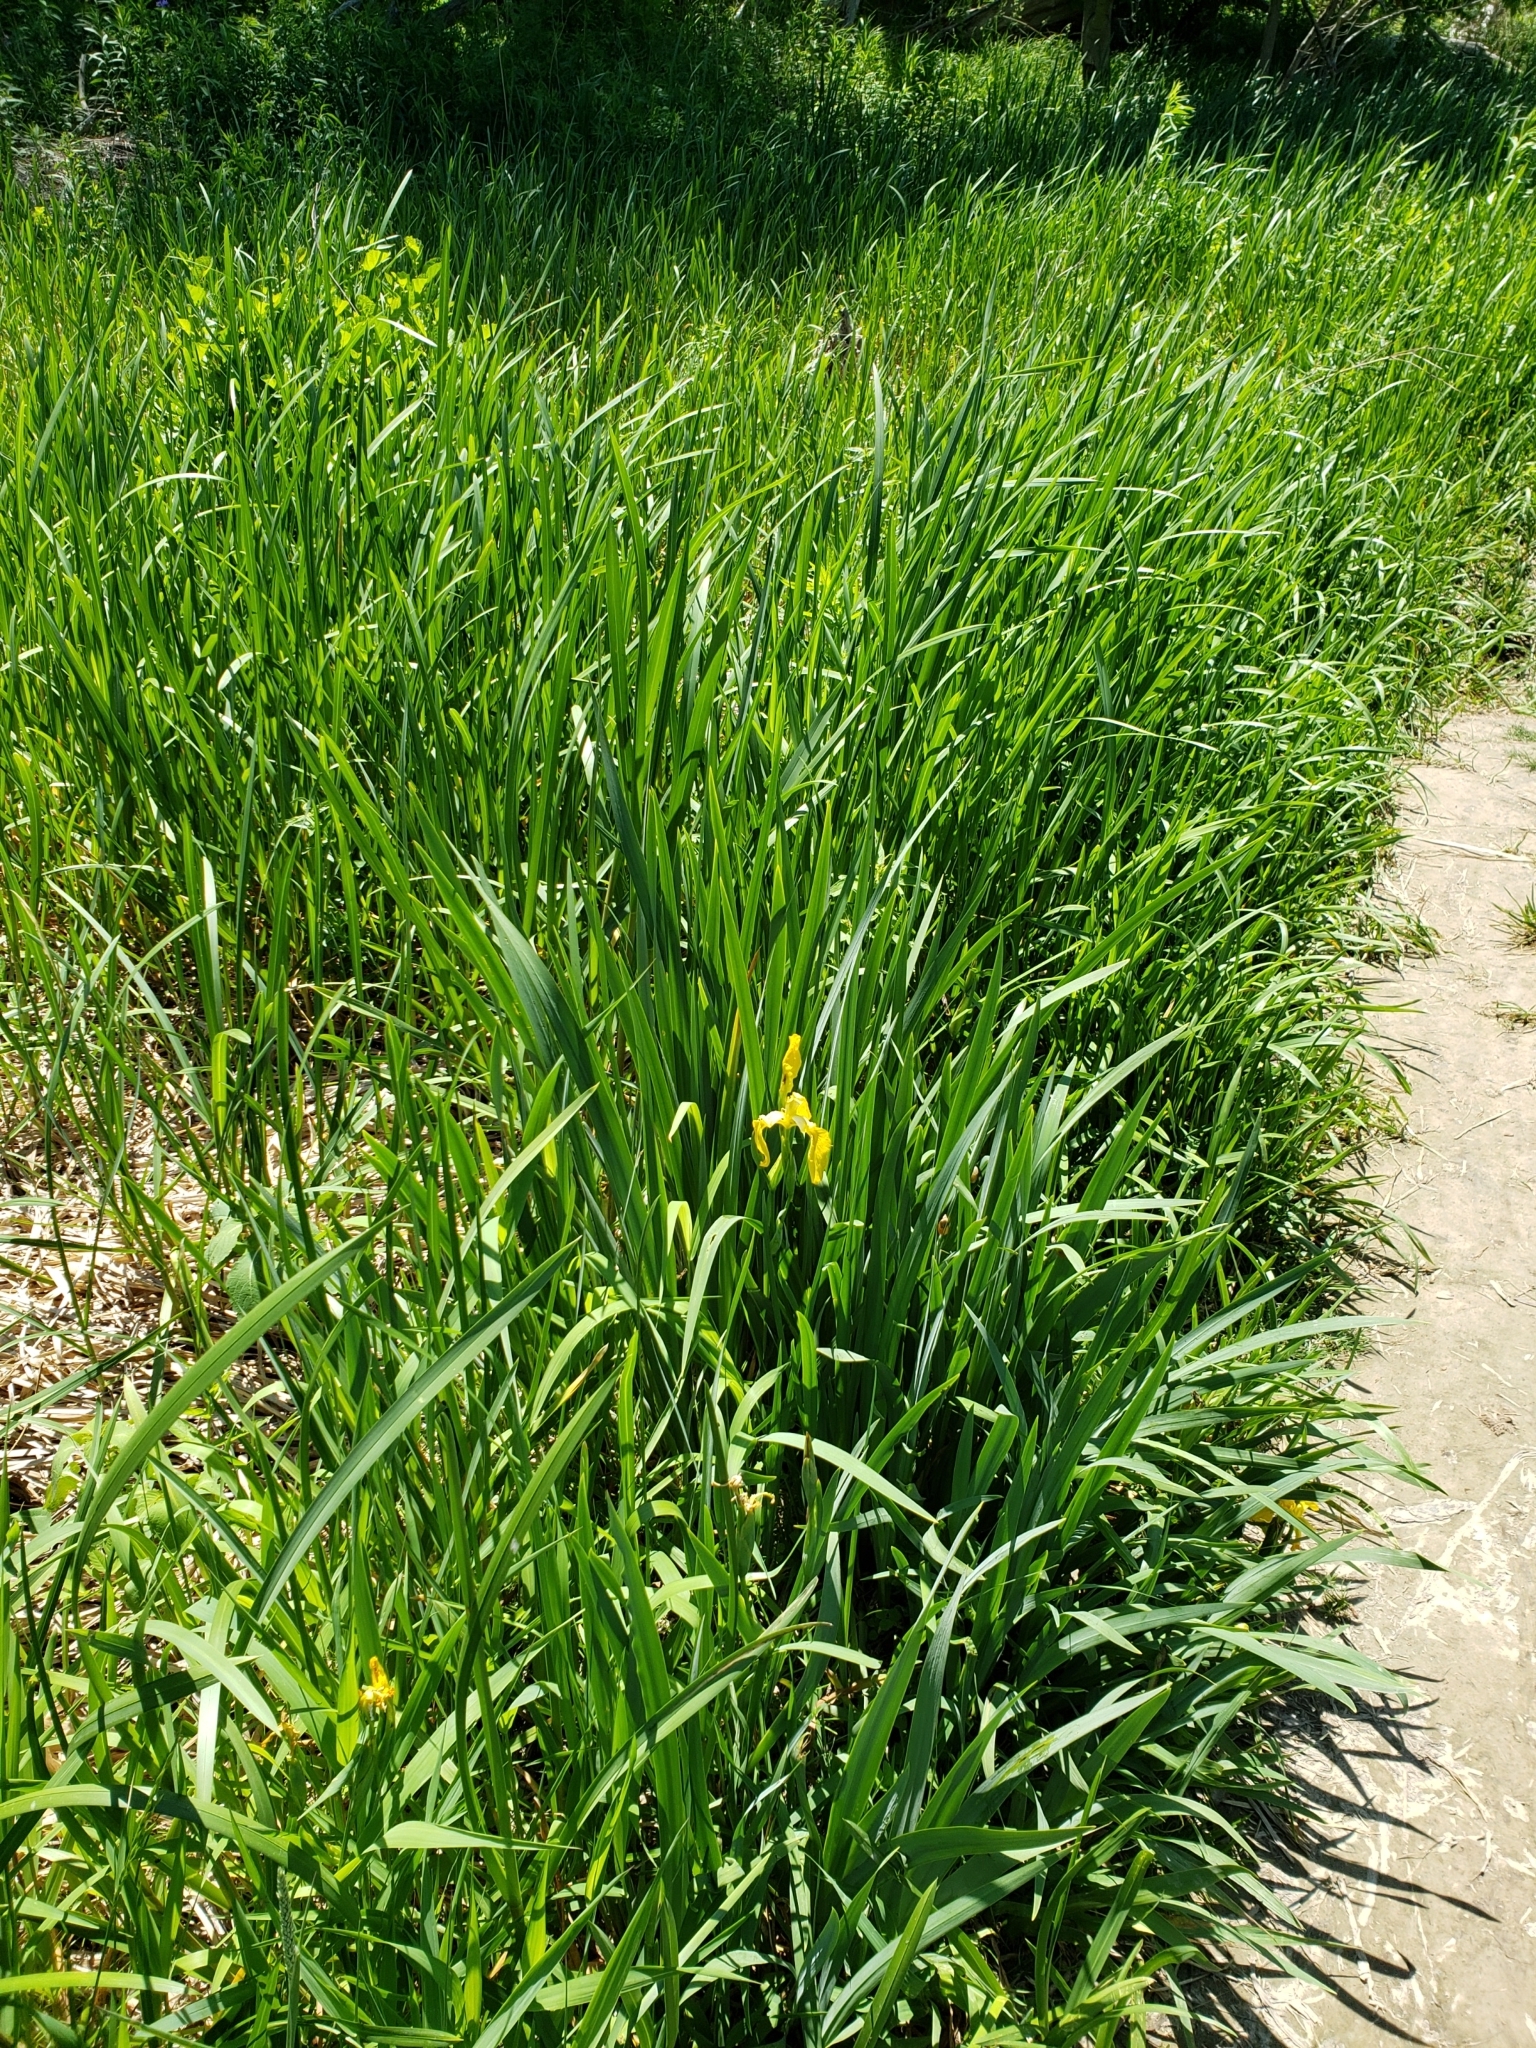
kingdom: Plantae
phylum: Tracheophyta
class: Liliopsida
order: Asparagales
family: Iridaceae
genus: Iris
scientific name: Iris pseudacorus
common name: Yellow flag
